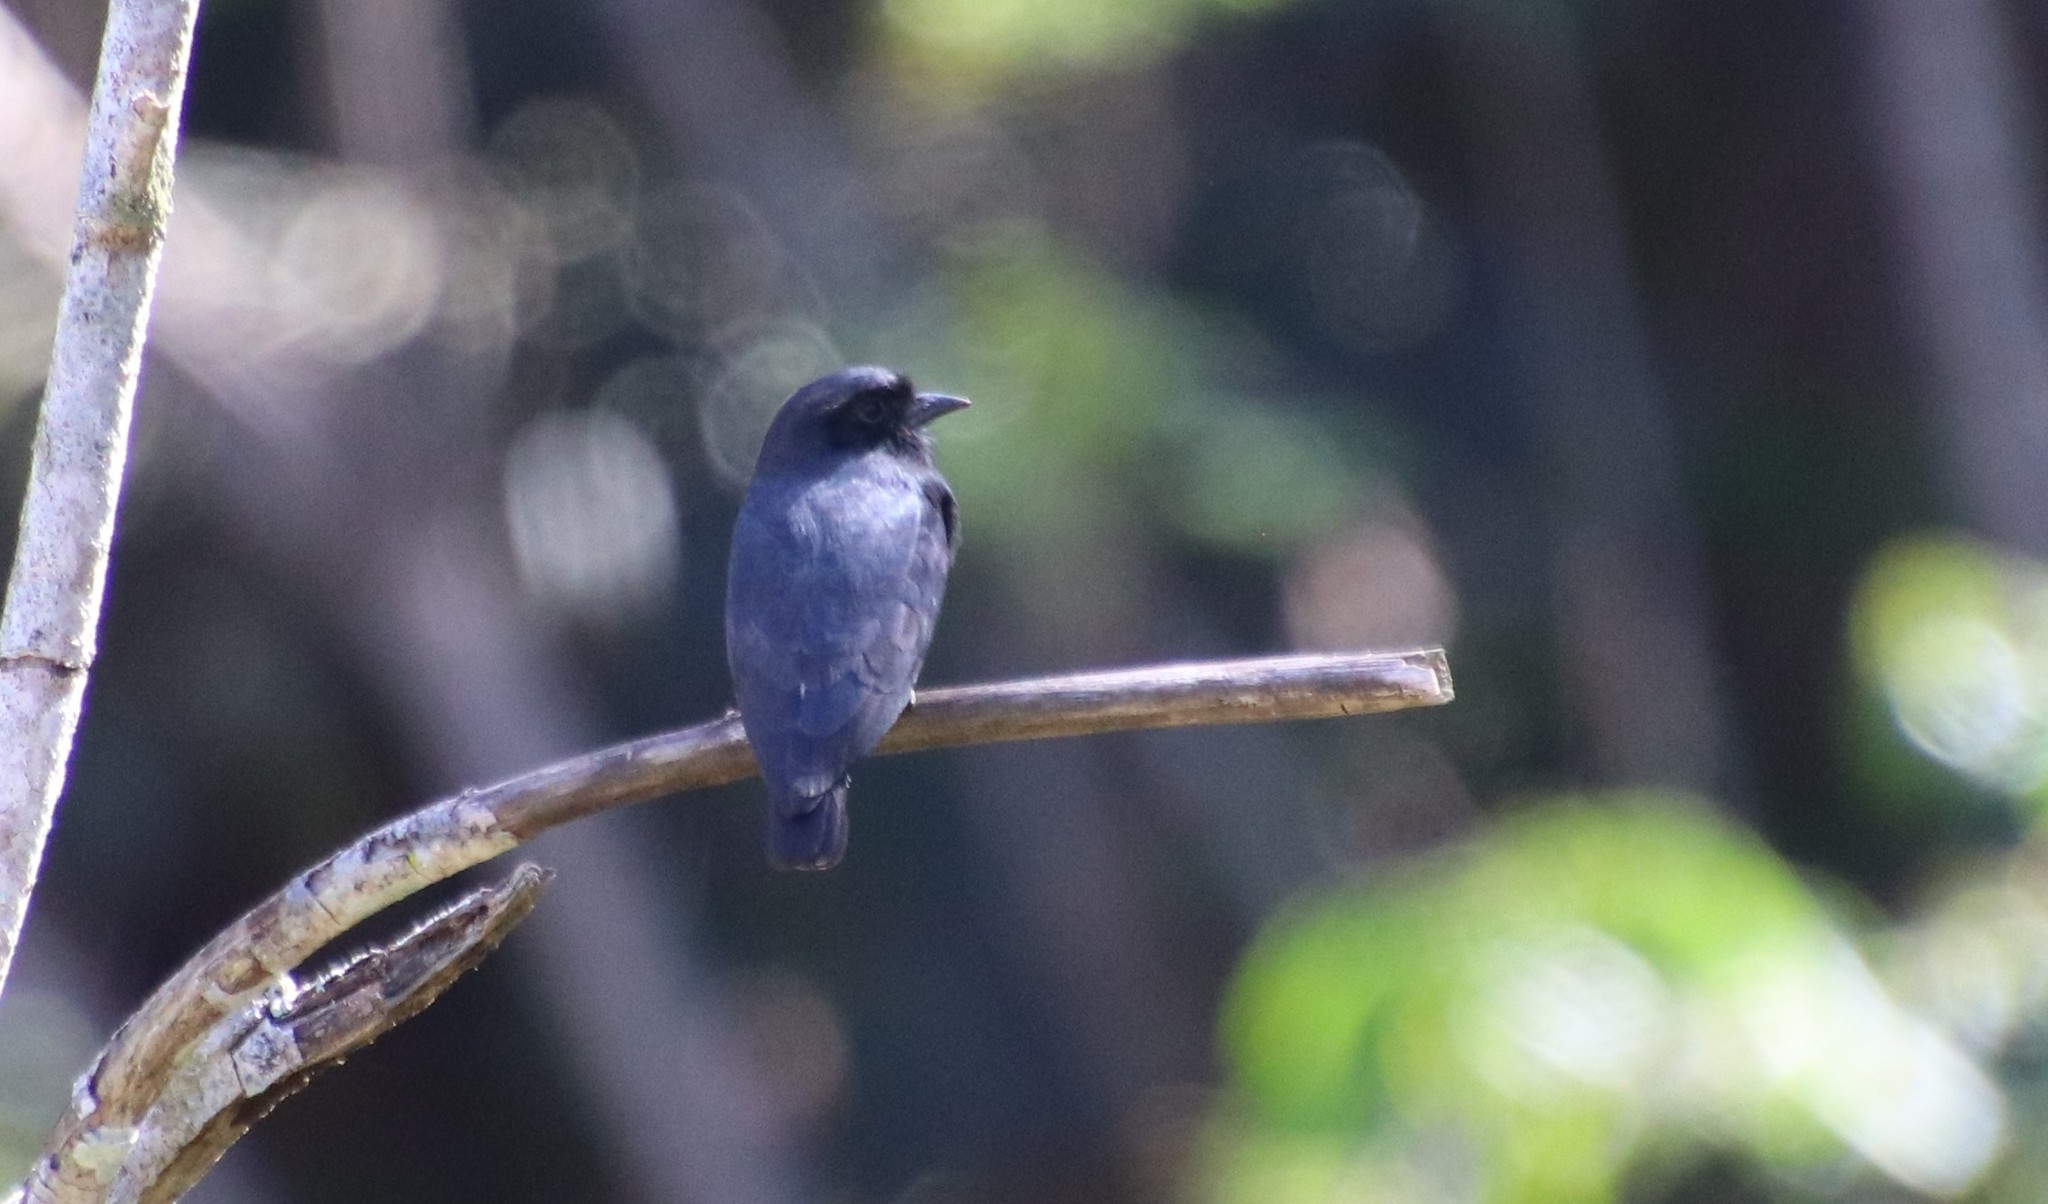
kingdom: Animalia
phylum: Chordata
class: Aves
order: Piciformes
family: Bucconidae
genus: Chelidoptera
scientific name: Chelidoptera tenebrosa
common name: Swallow-winged puffbird
